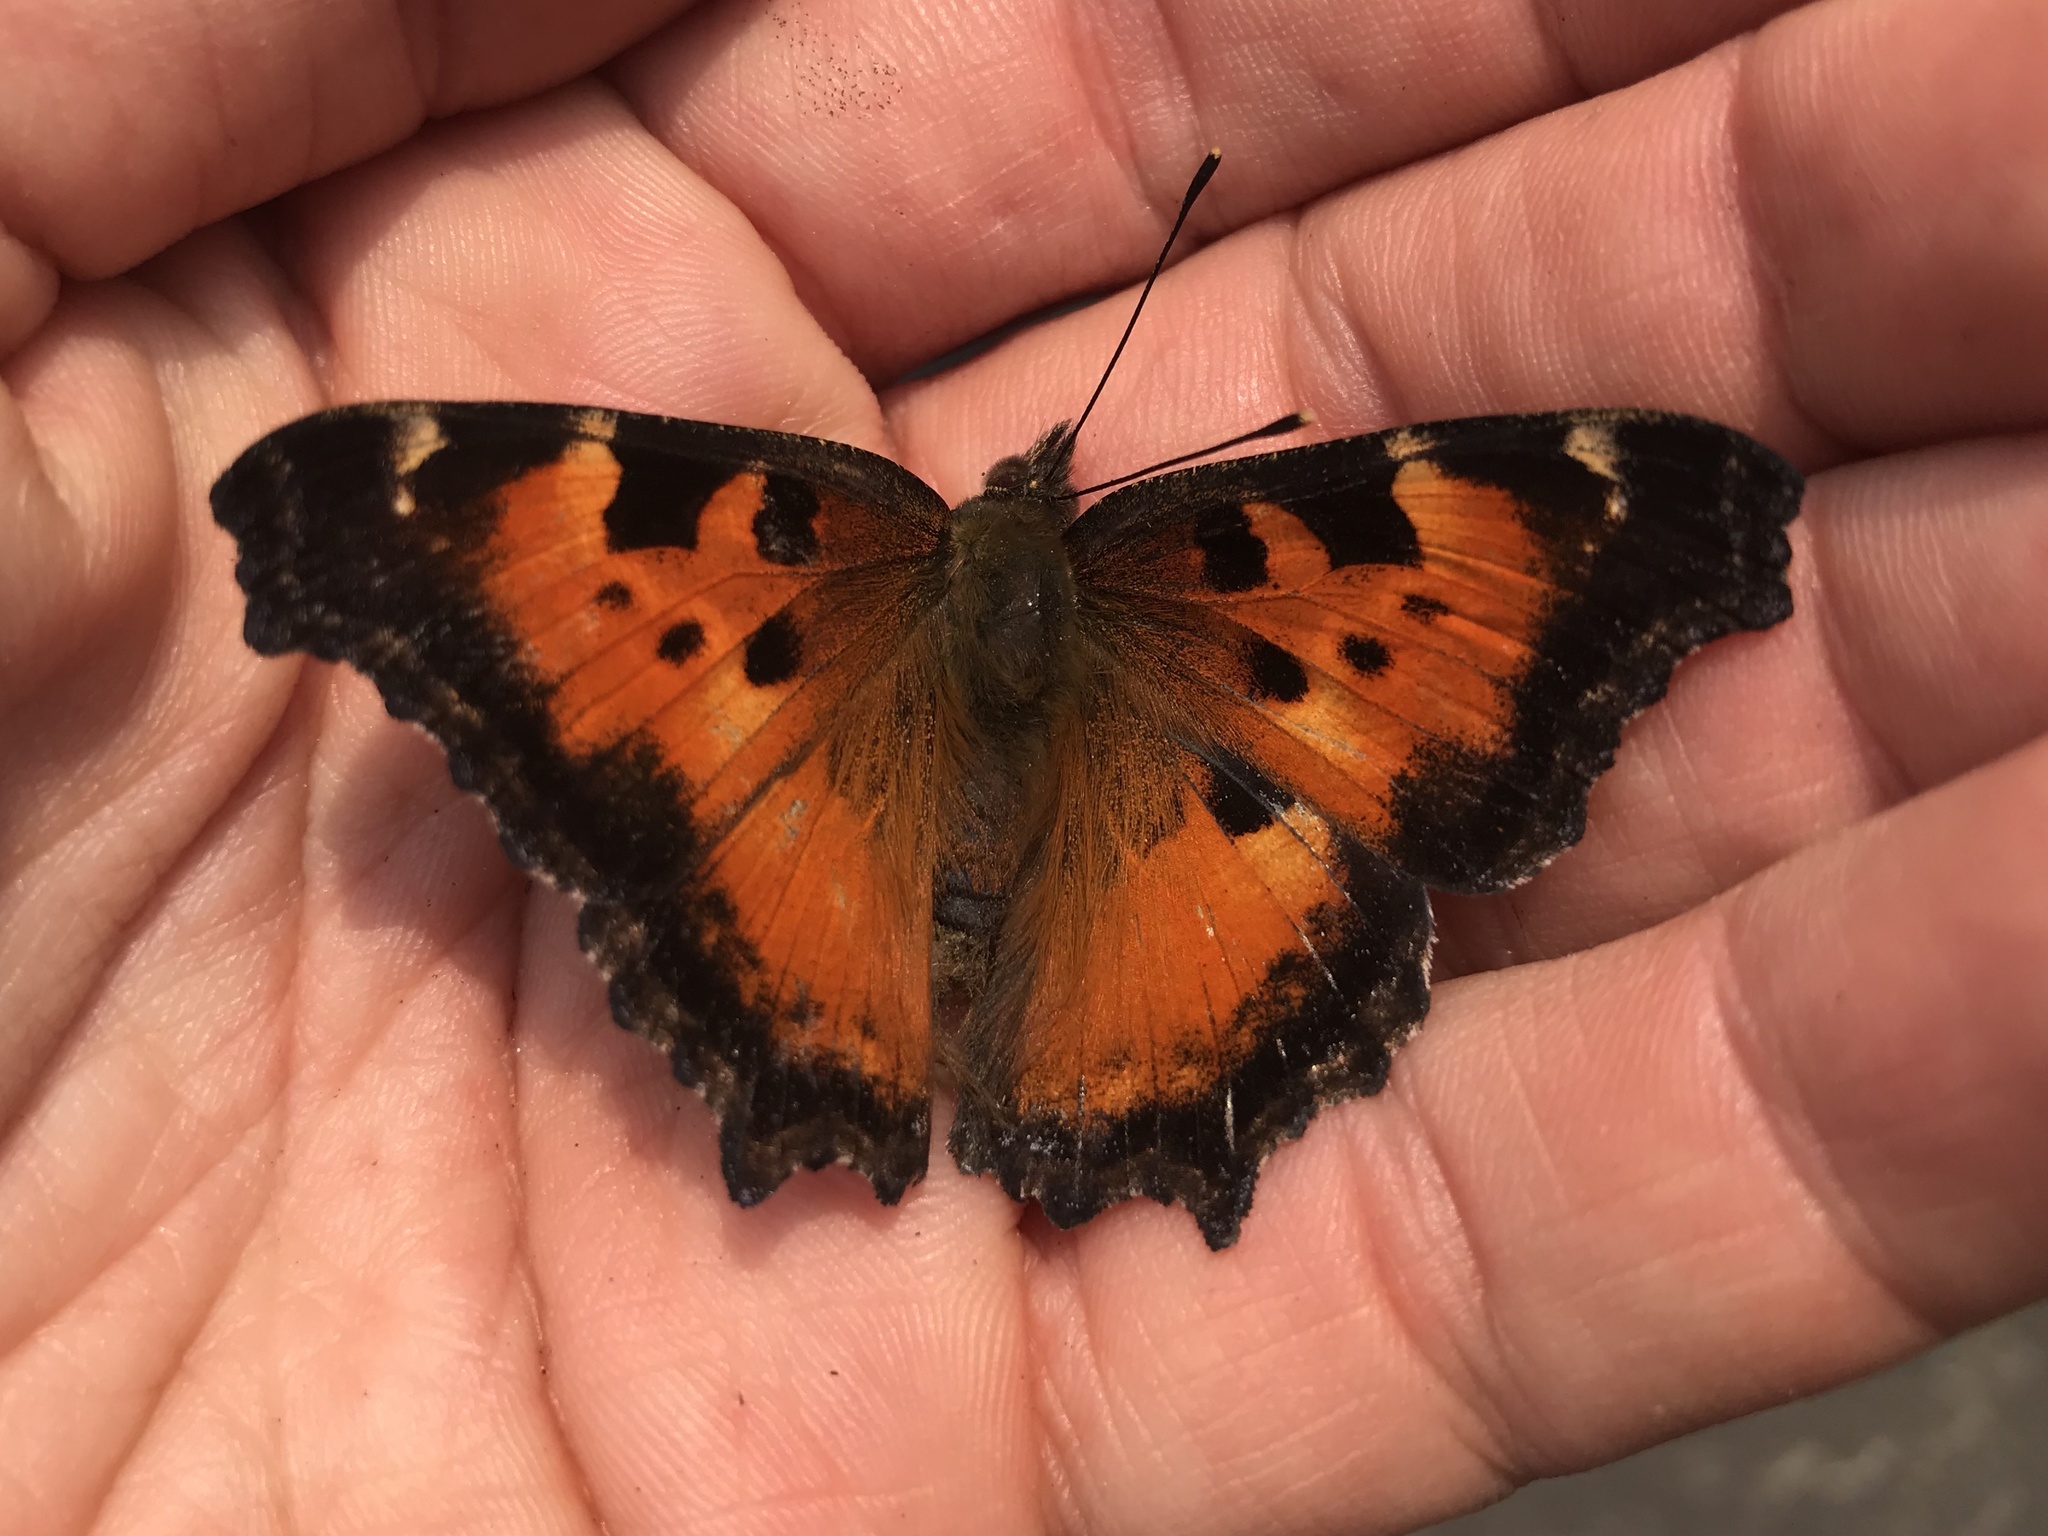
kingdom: Animalia
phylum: Arthropoda
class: Insecta
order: Lepidoptera
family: Nymphalidae
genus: Nymphalis
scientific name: Nymphalis californica
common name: California tortoiseshell
